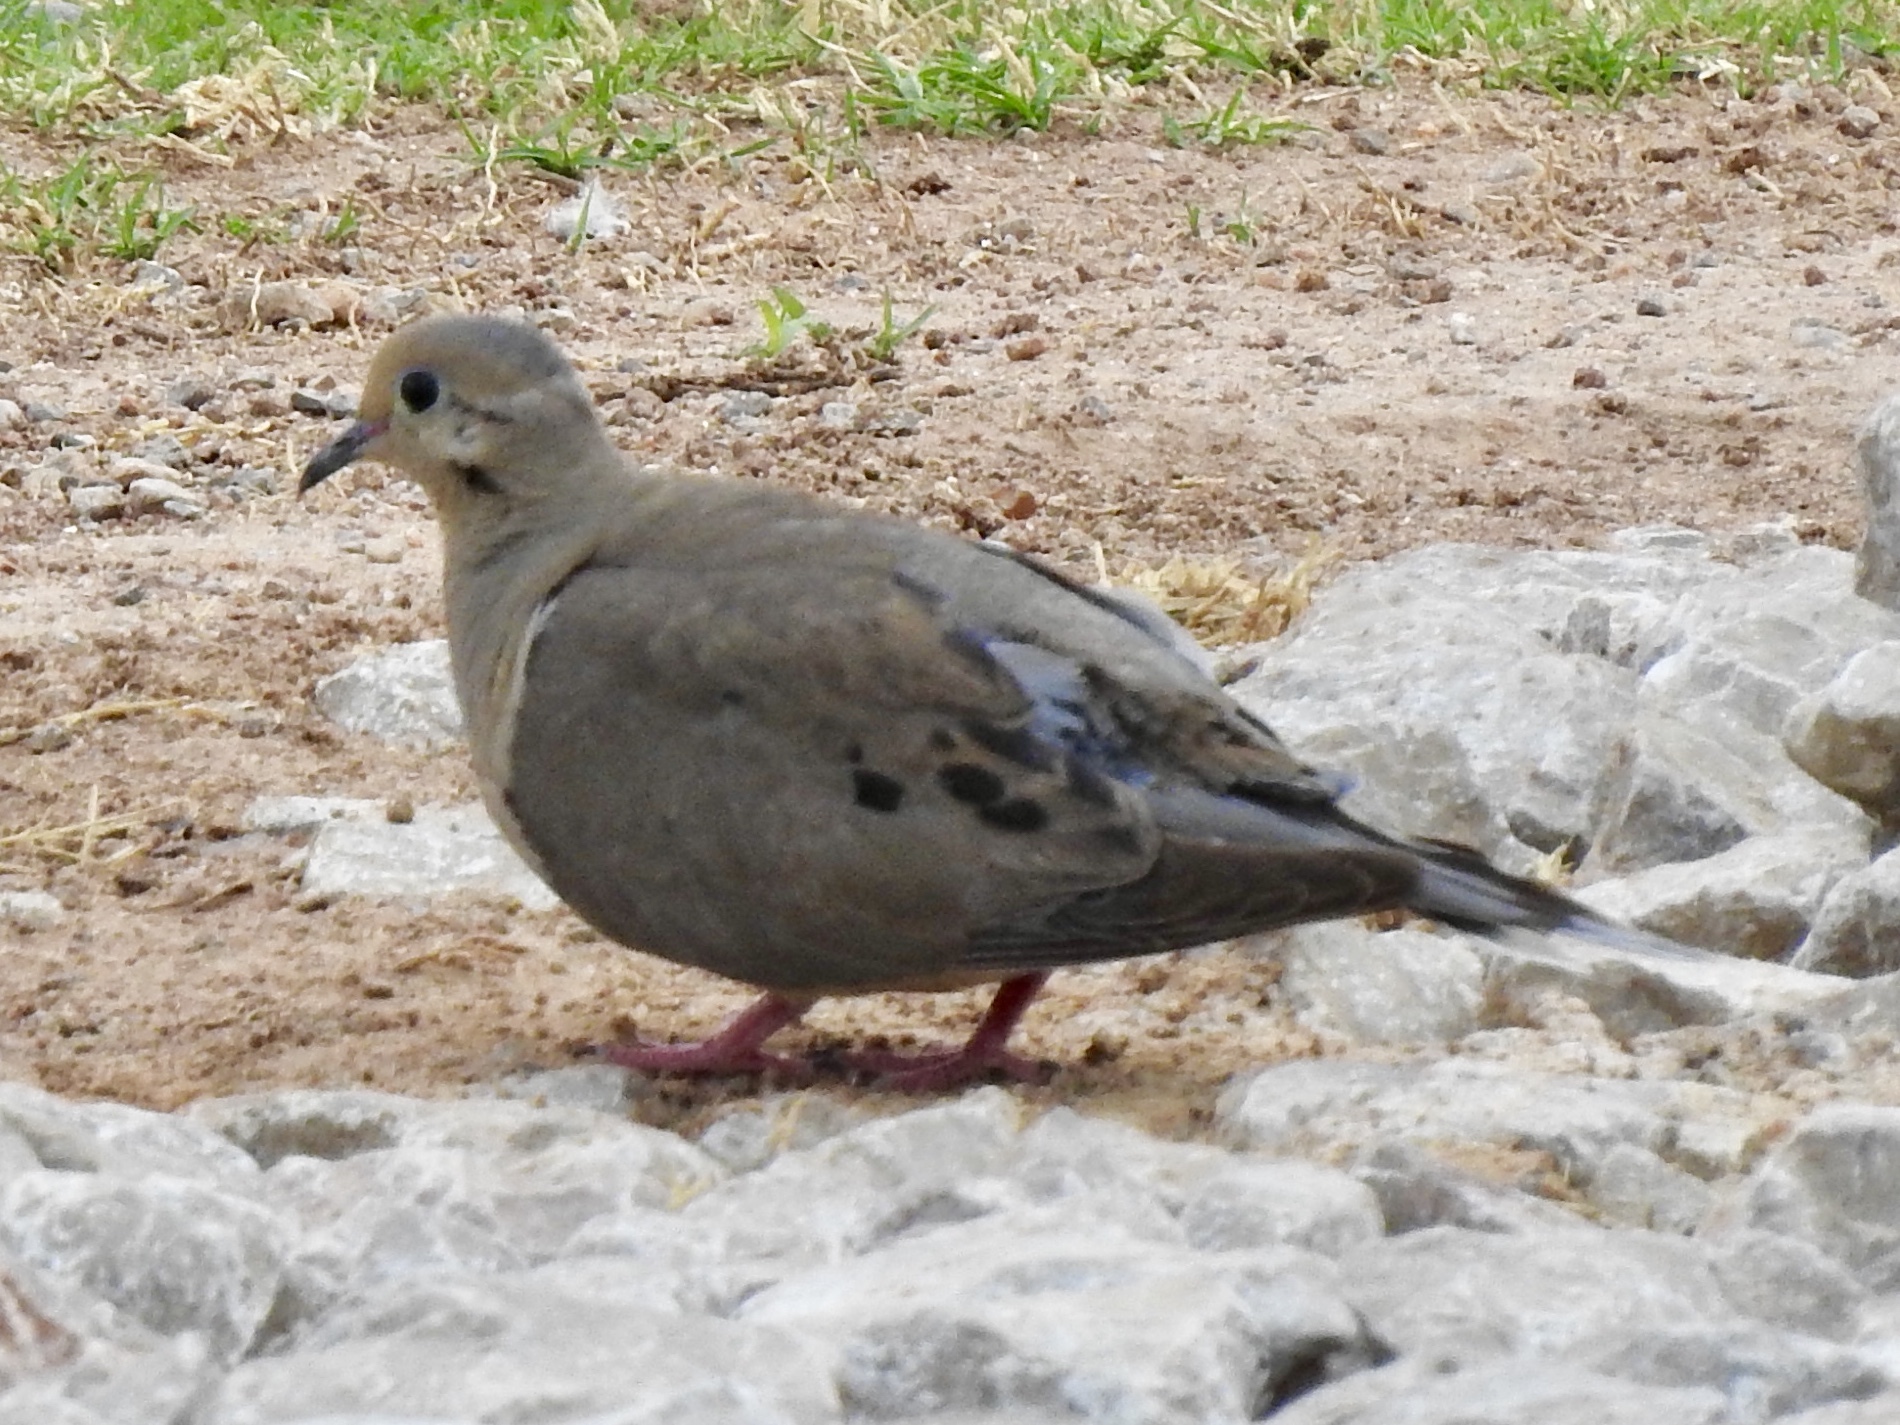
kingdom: Animalia
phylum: Chordata
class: Aves
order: Columbiformes
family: Columbidae
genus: Zenaida
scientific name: Zenaida macroura
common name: Mourning dove
